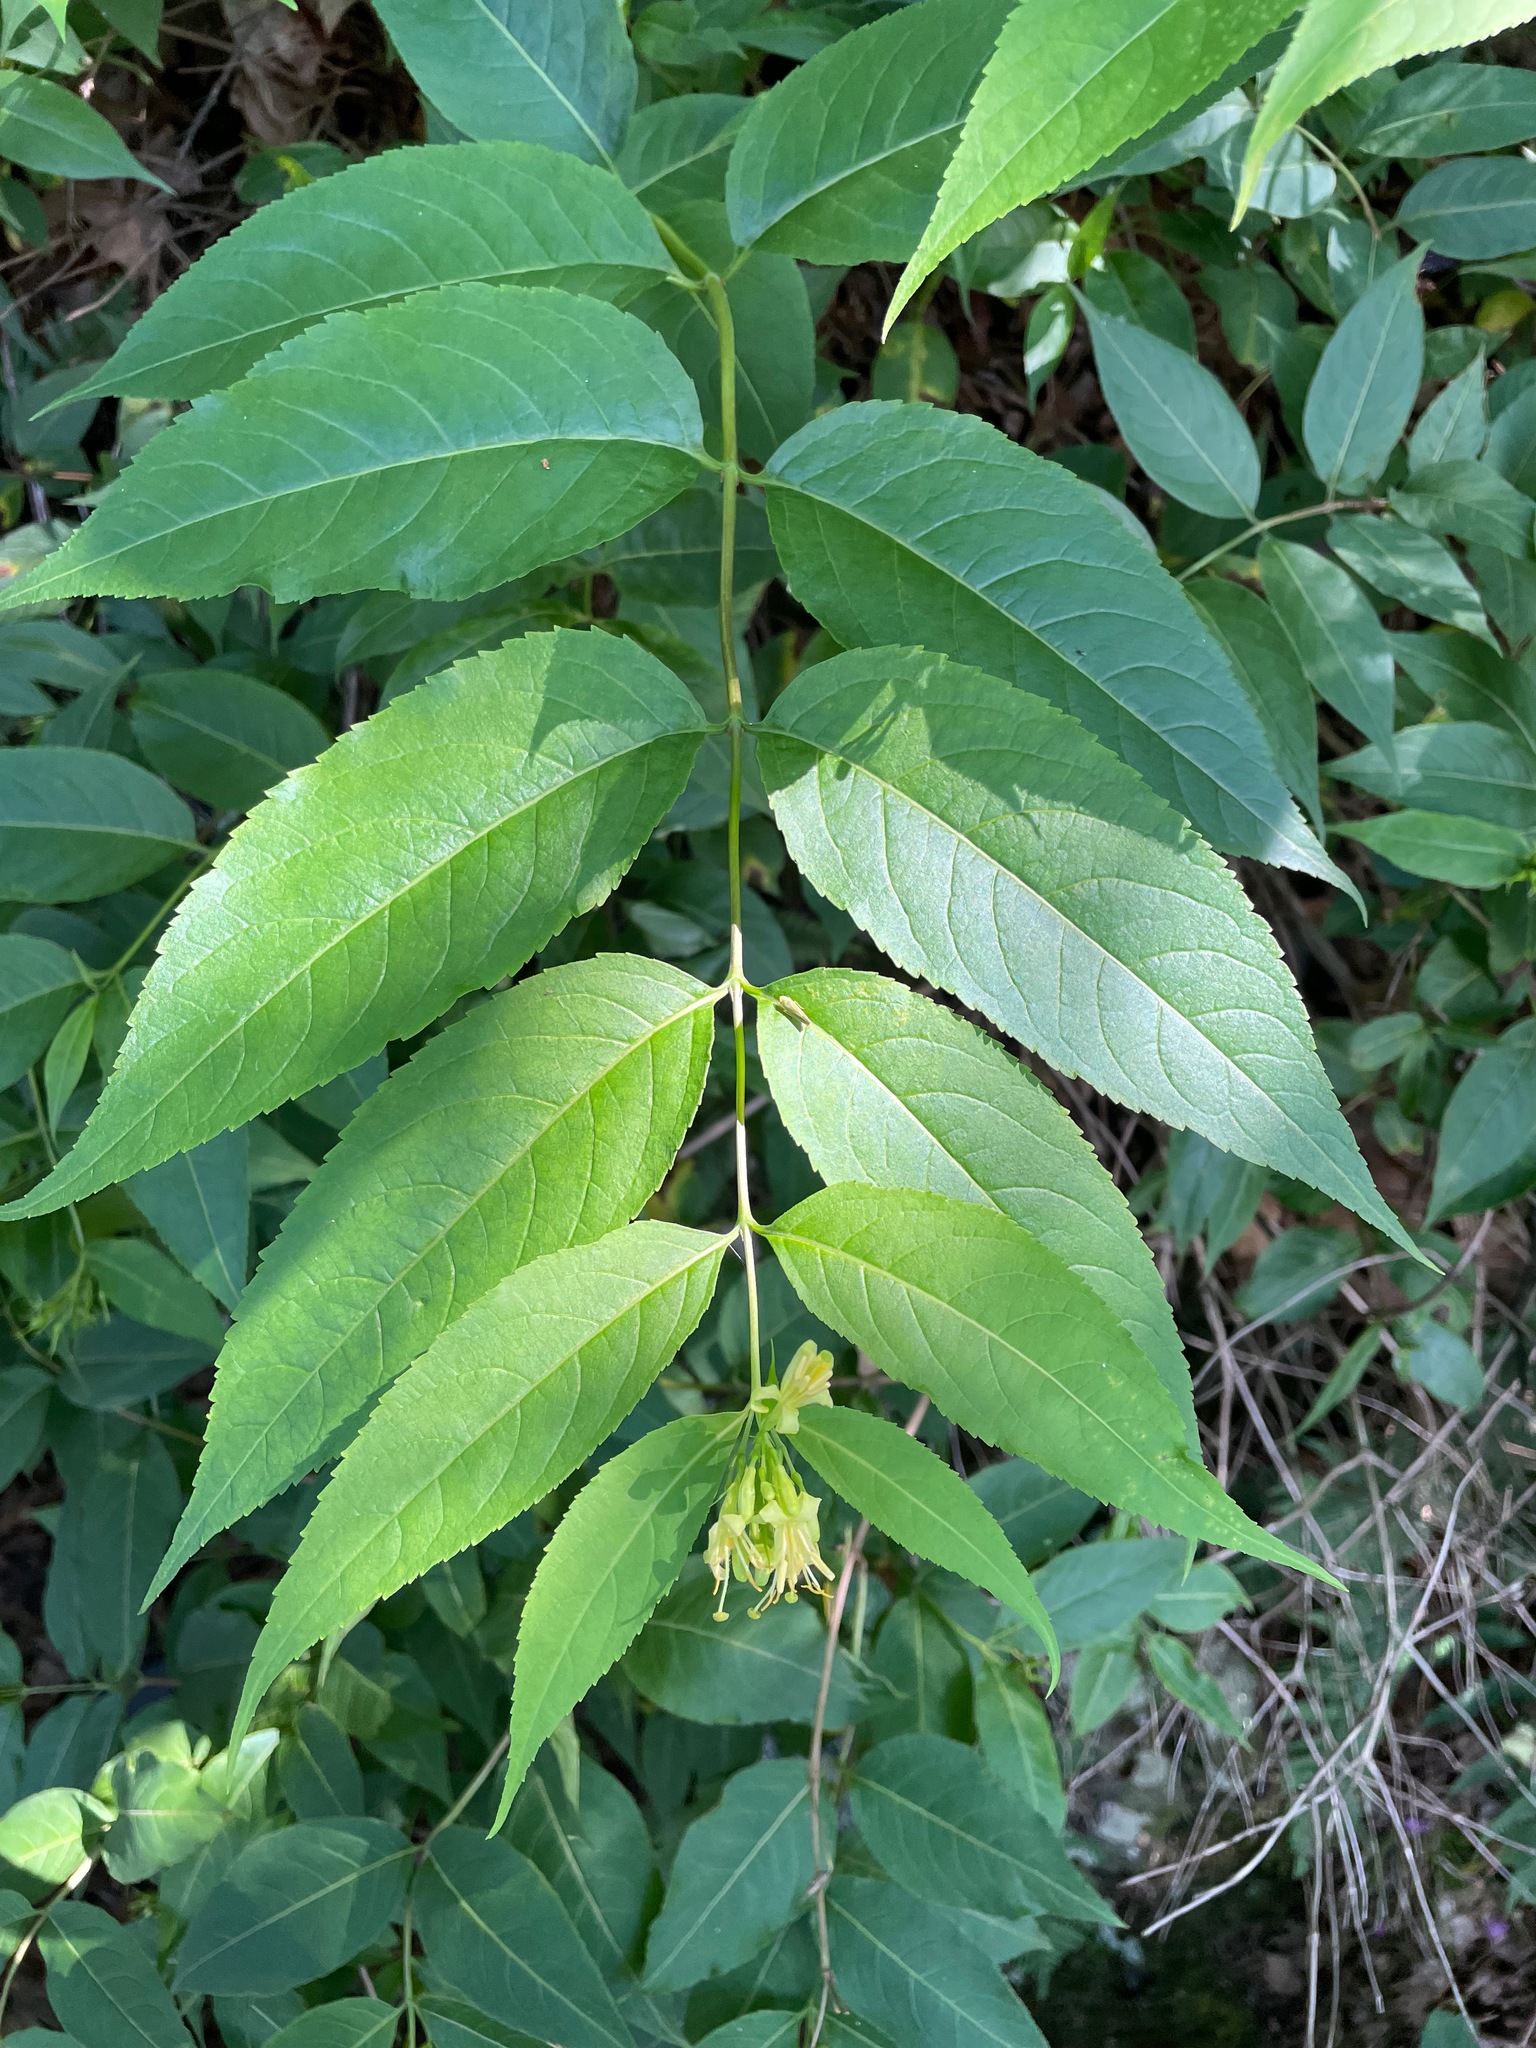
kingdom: Plantae
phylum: Tracheophyta
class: Magnoliopsida
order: Dipsacales
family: Caprifoliaceae
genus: Diervilla
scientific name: Diervilla lonicera
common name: Bush-honeysuckle
